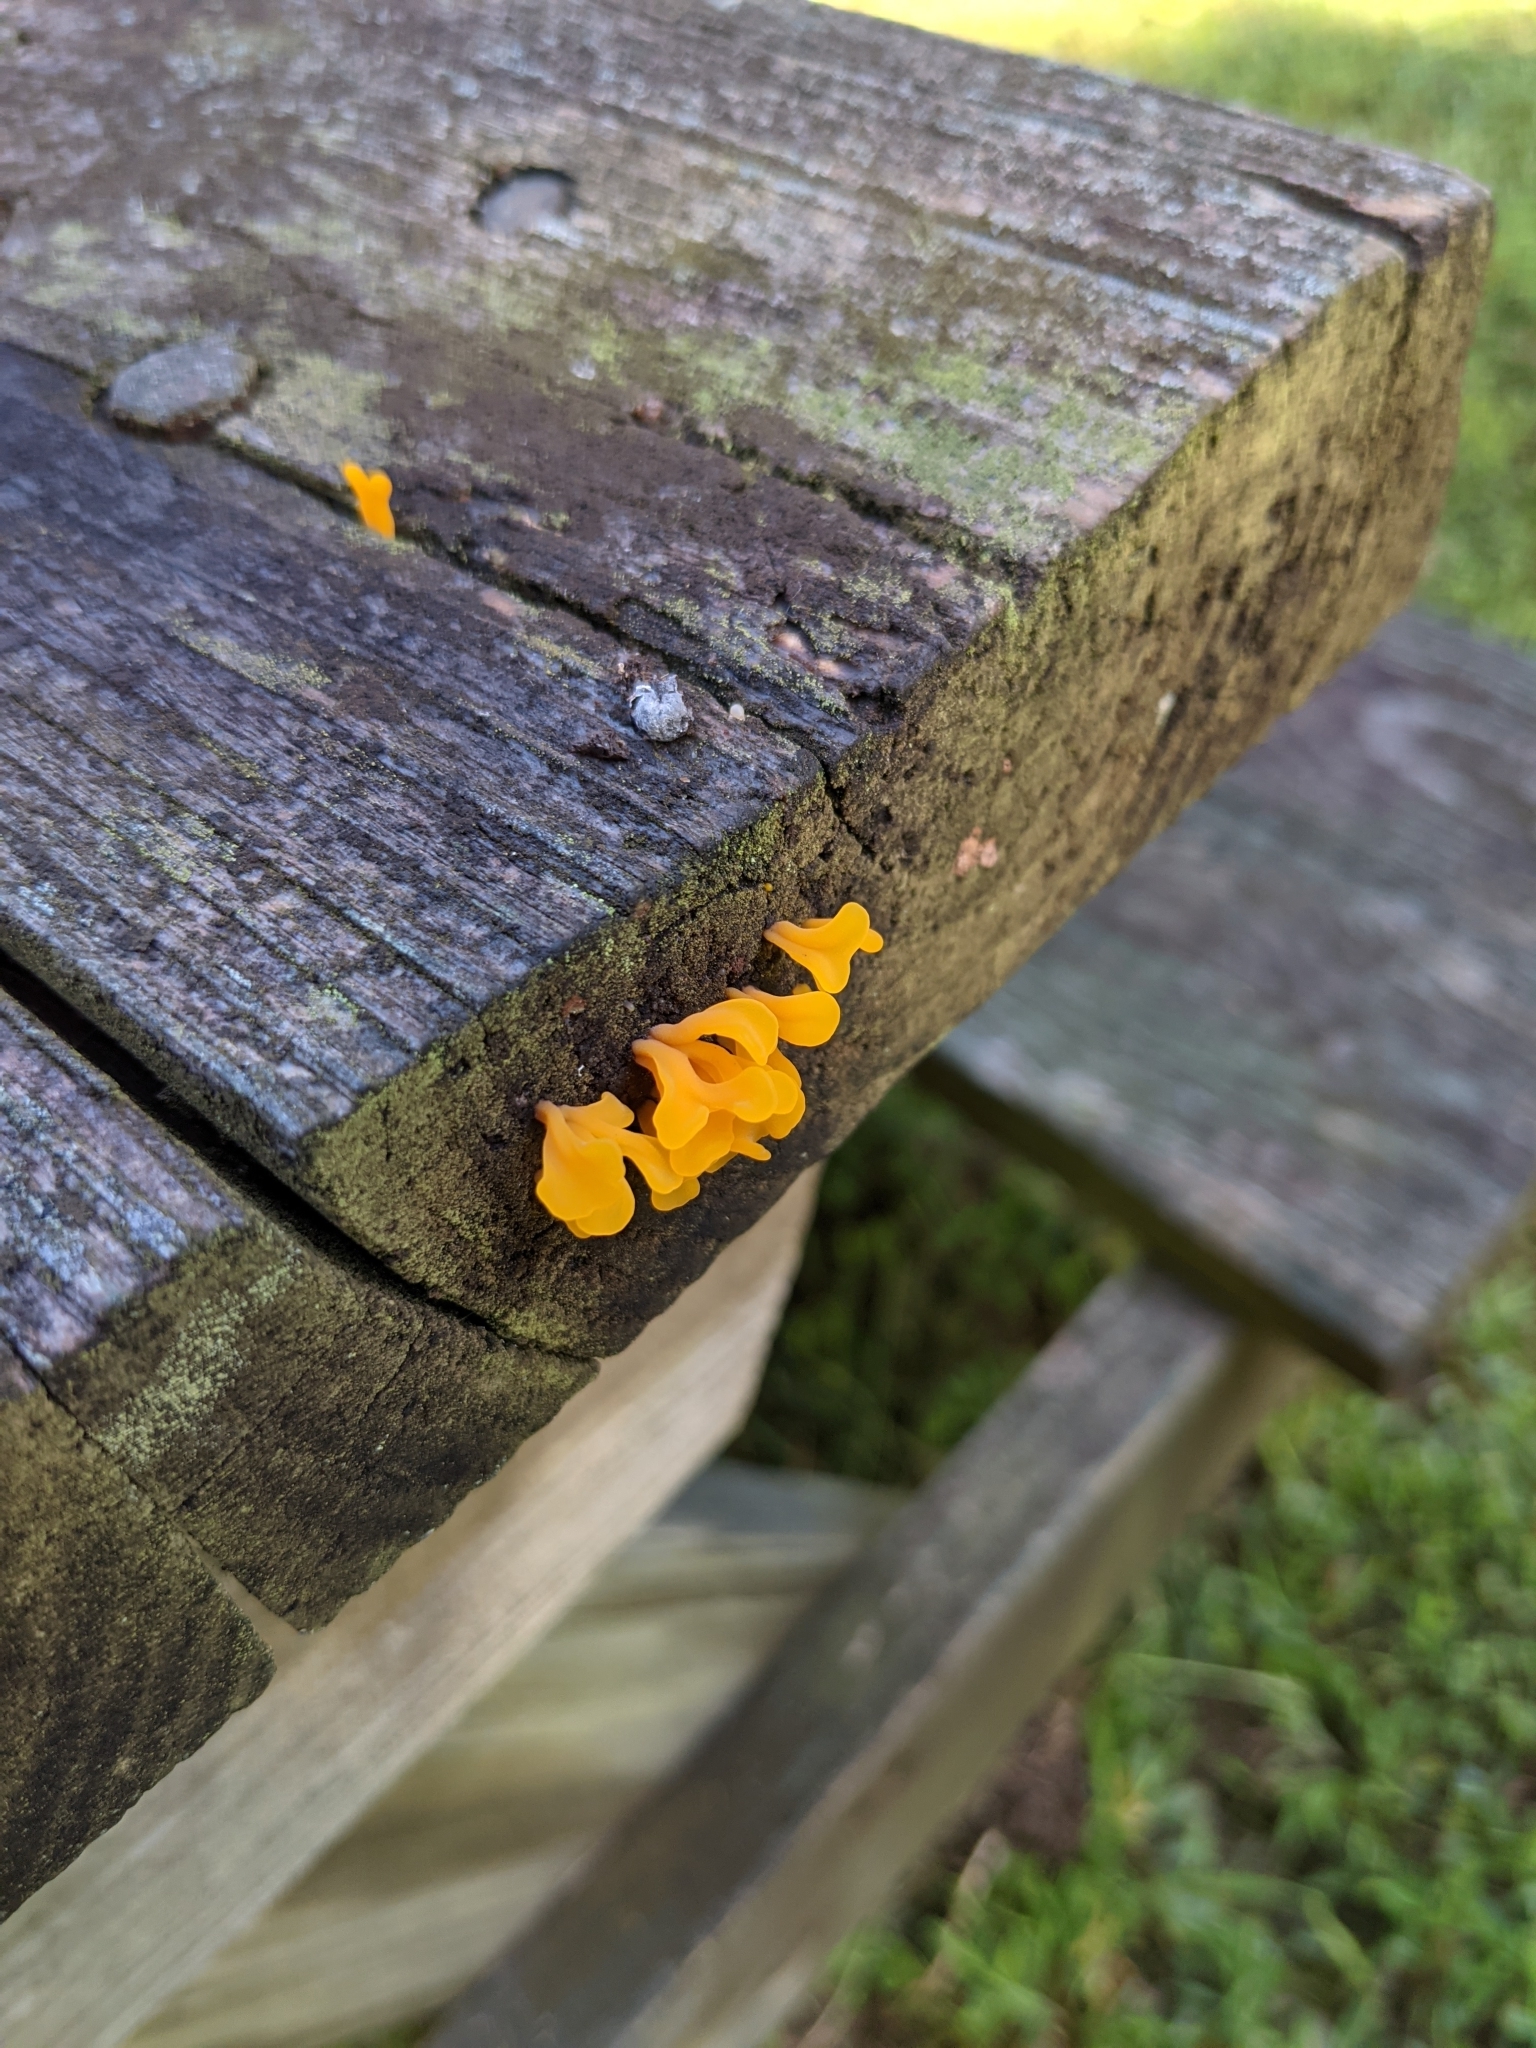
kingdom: Fungi
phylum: Basidiomycota
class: Dacrymycetes
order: Dacrymycetales
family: Dacrymycetaceae
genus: Dacrymyces
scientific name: Dacrymyces spathularius
